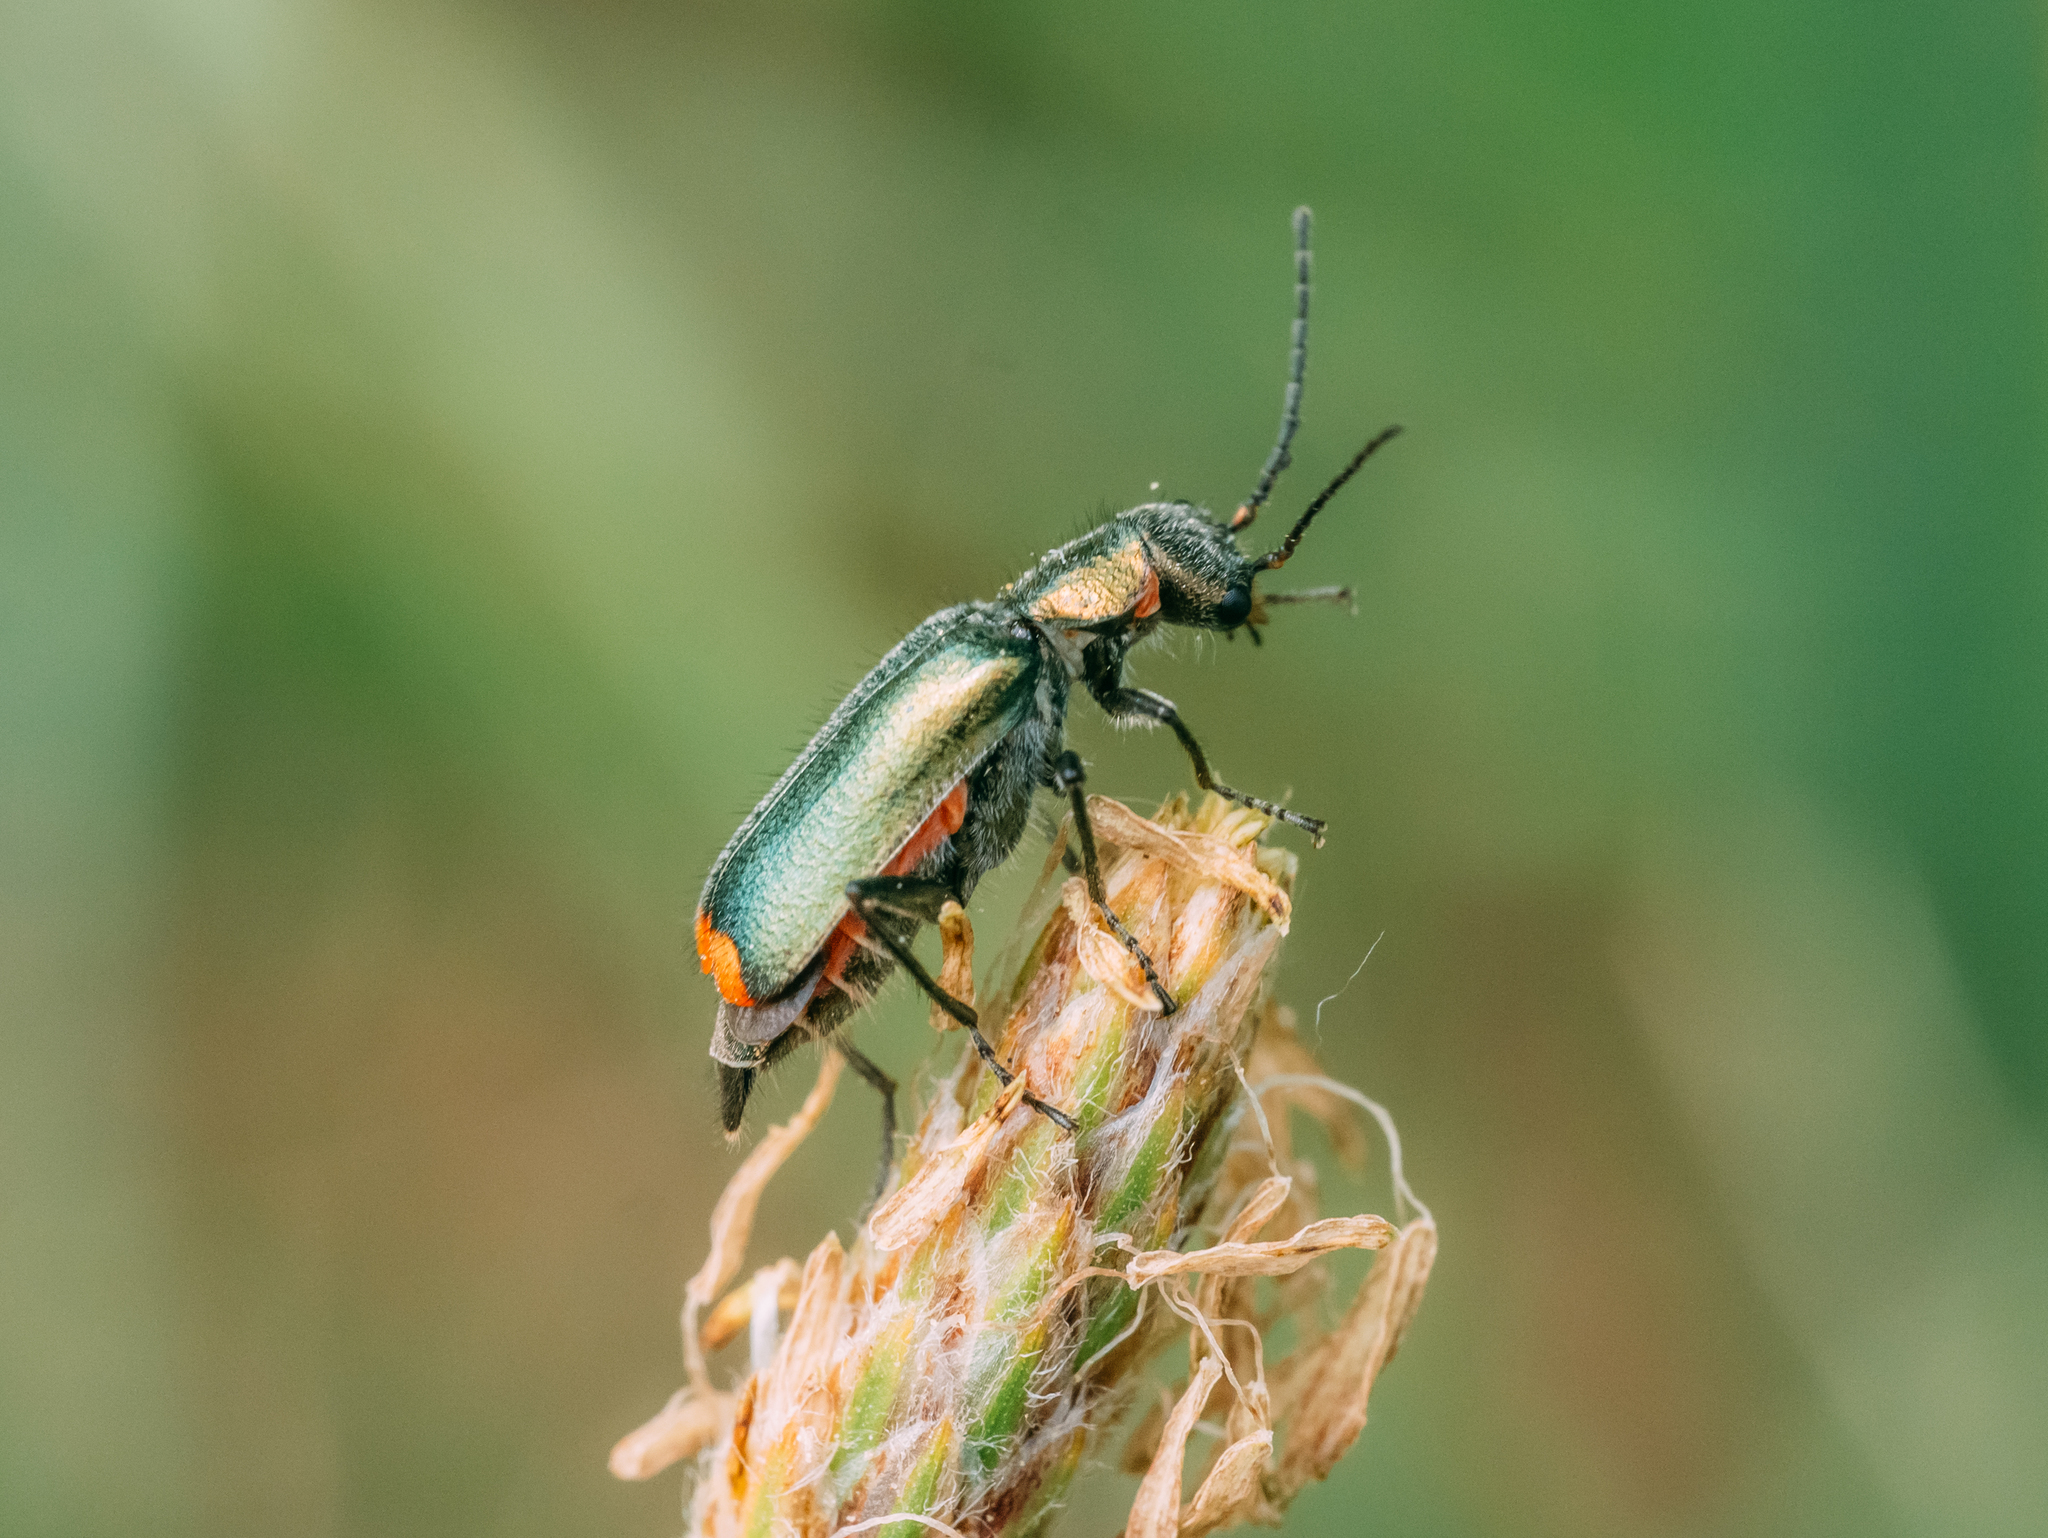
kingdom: Animalia
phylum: Arthropoda
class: Insecta
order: Coleoptera
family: Melyridae
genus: Malachius
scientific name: Malachius bipustulatus
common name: Malachite beetle
